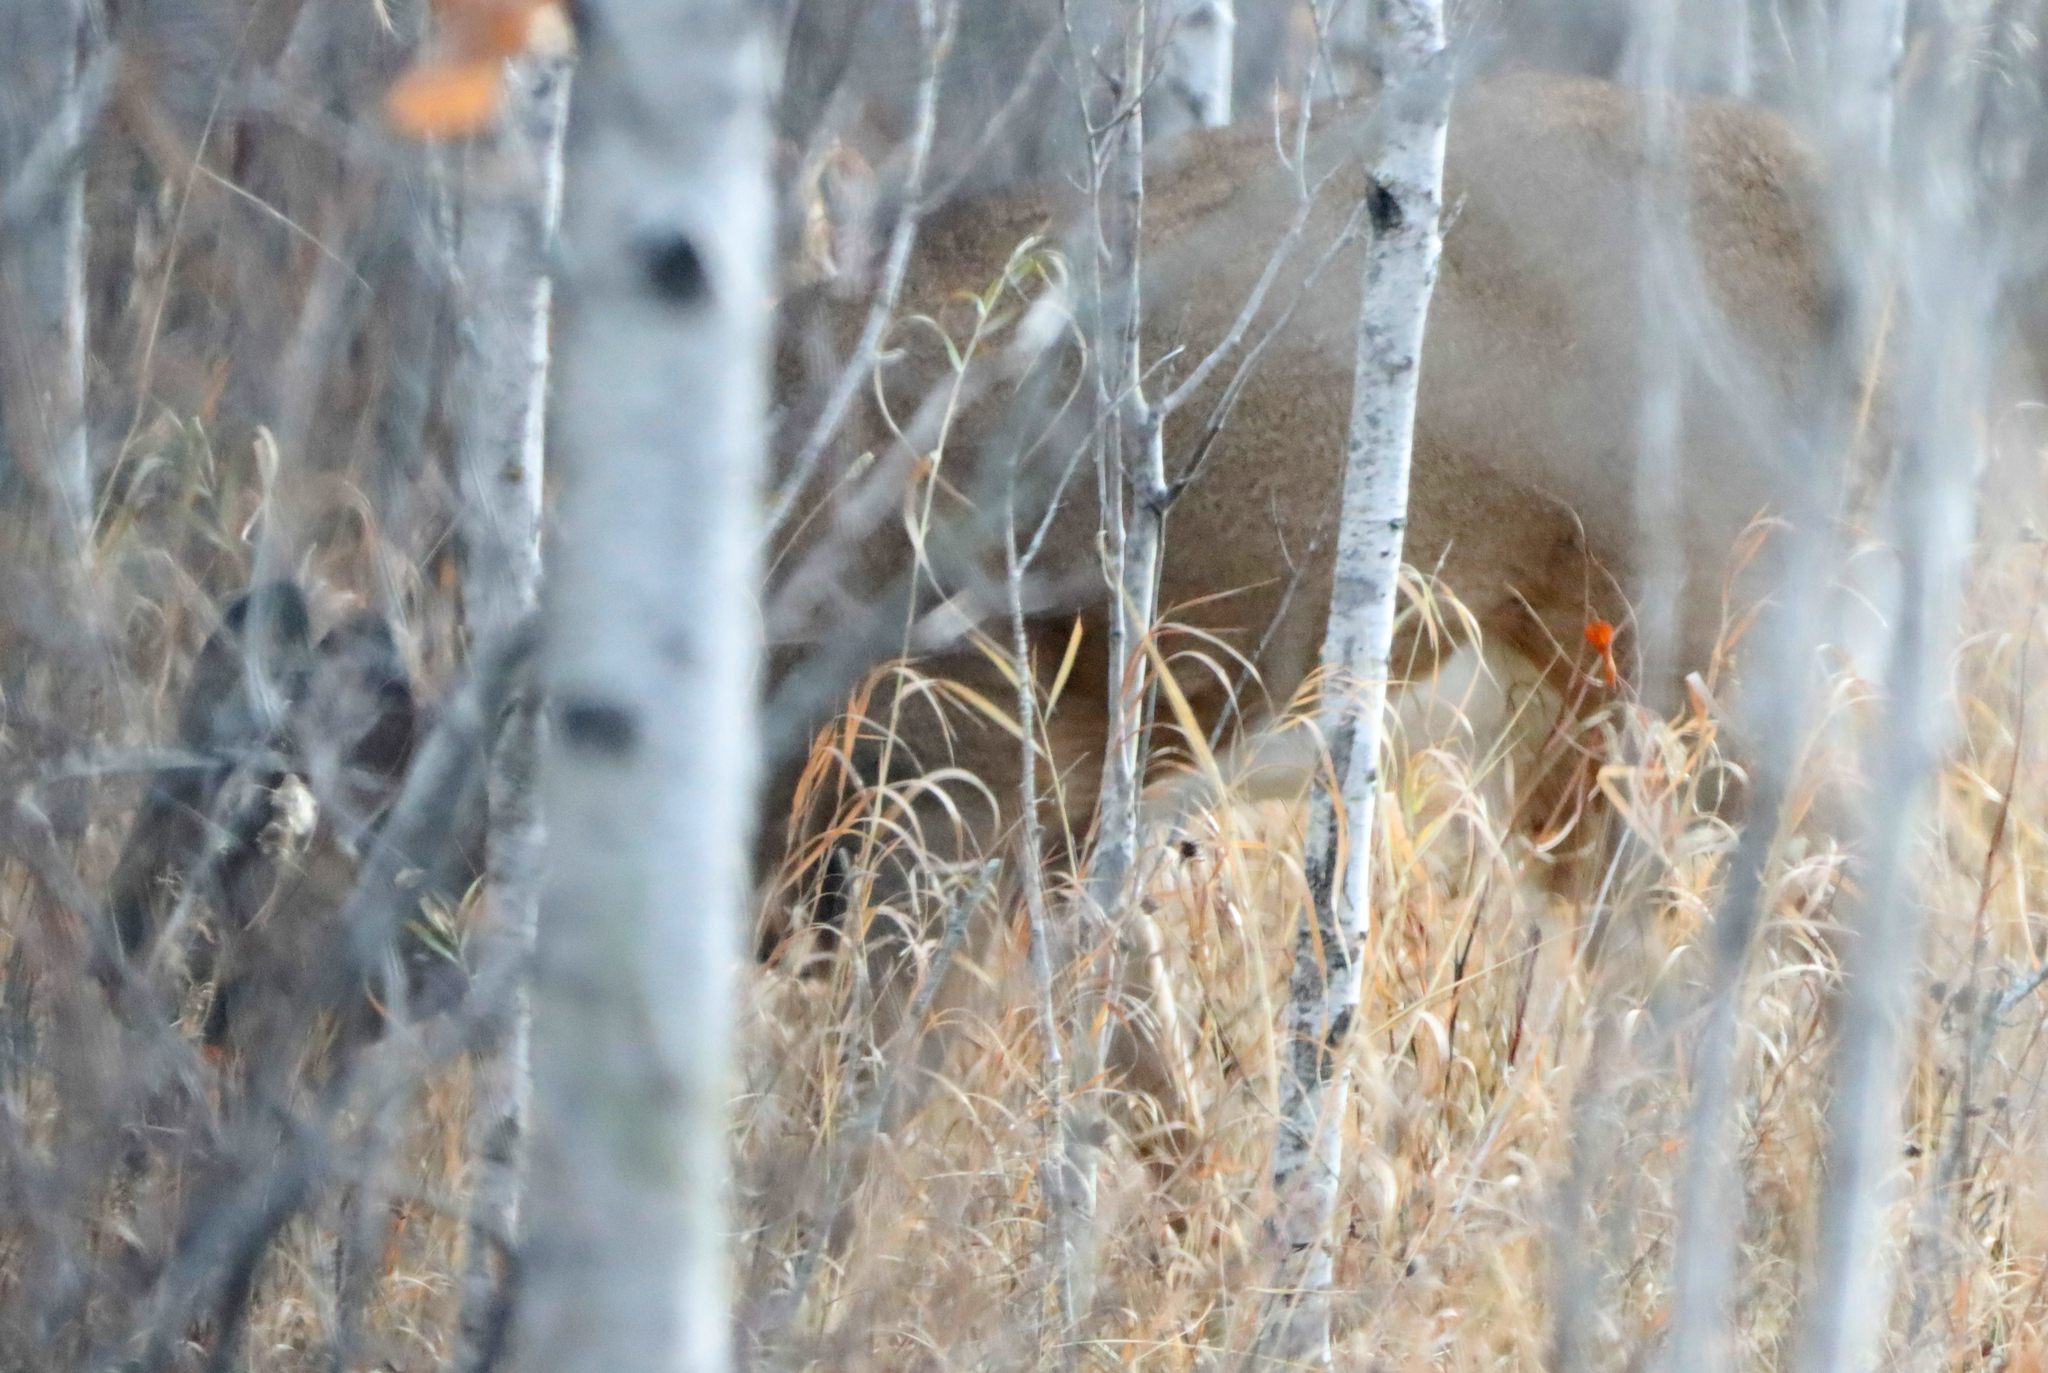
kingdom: Animalia
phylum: Chordata
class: Mammalia
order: Artiodactyla
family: Cervidae
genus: Odocoileus
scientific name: Odocoileus virginianus
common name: White-tailed deer
